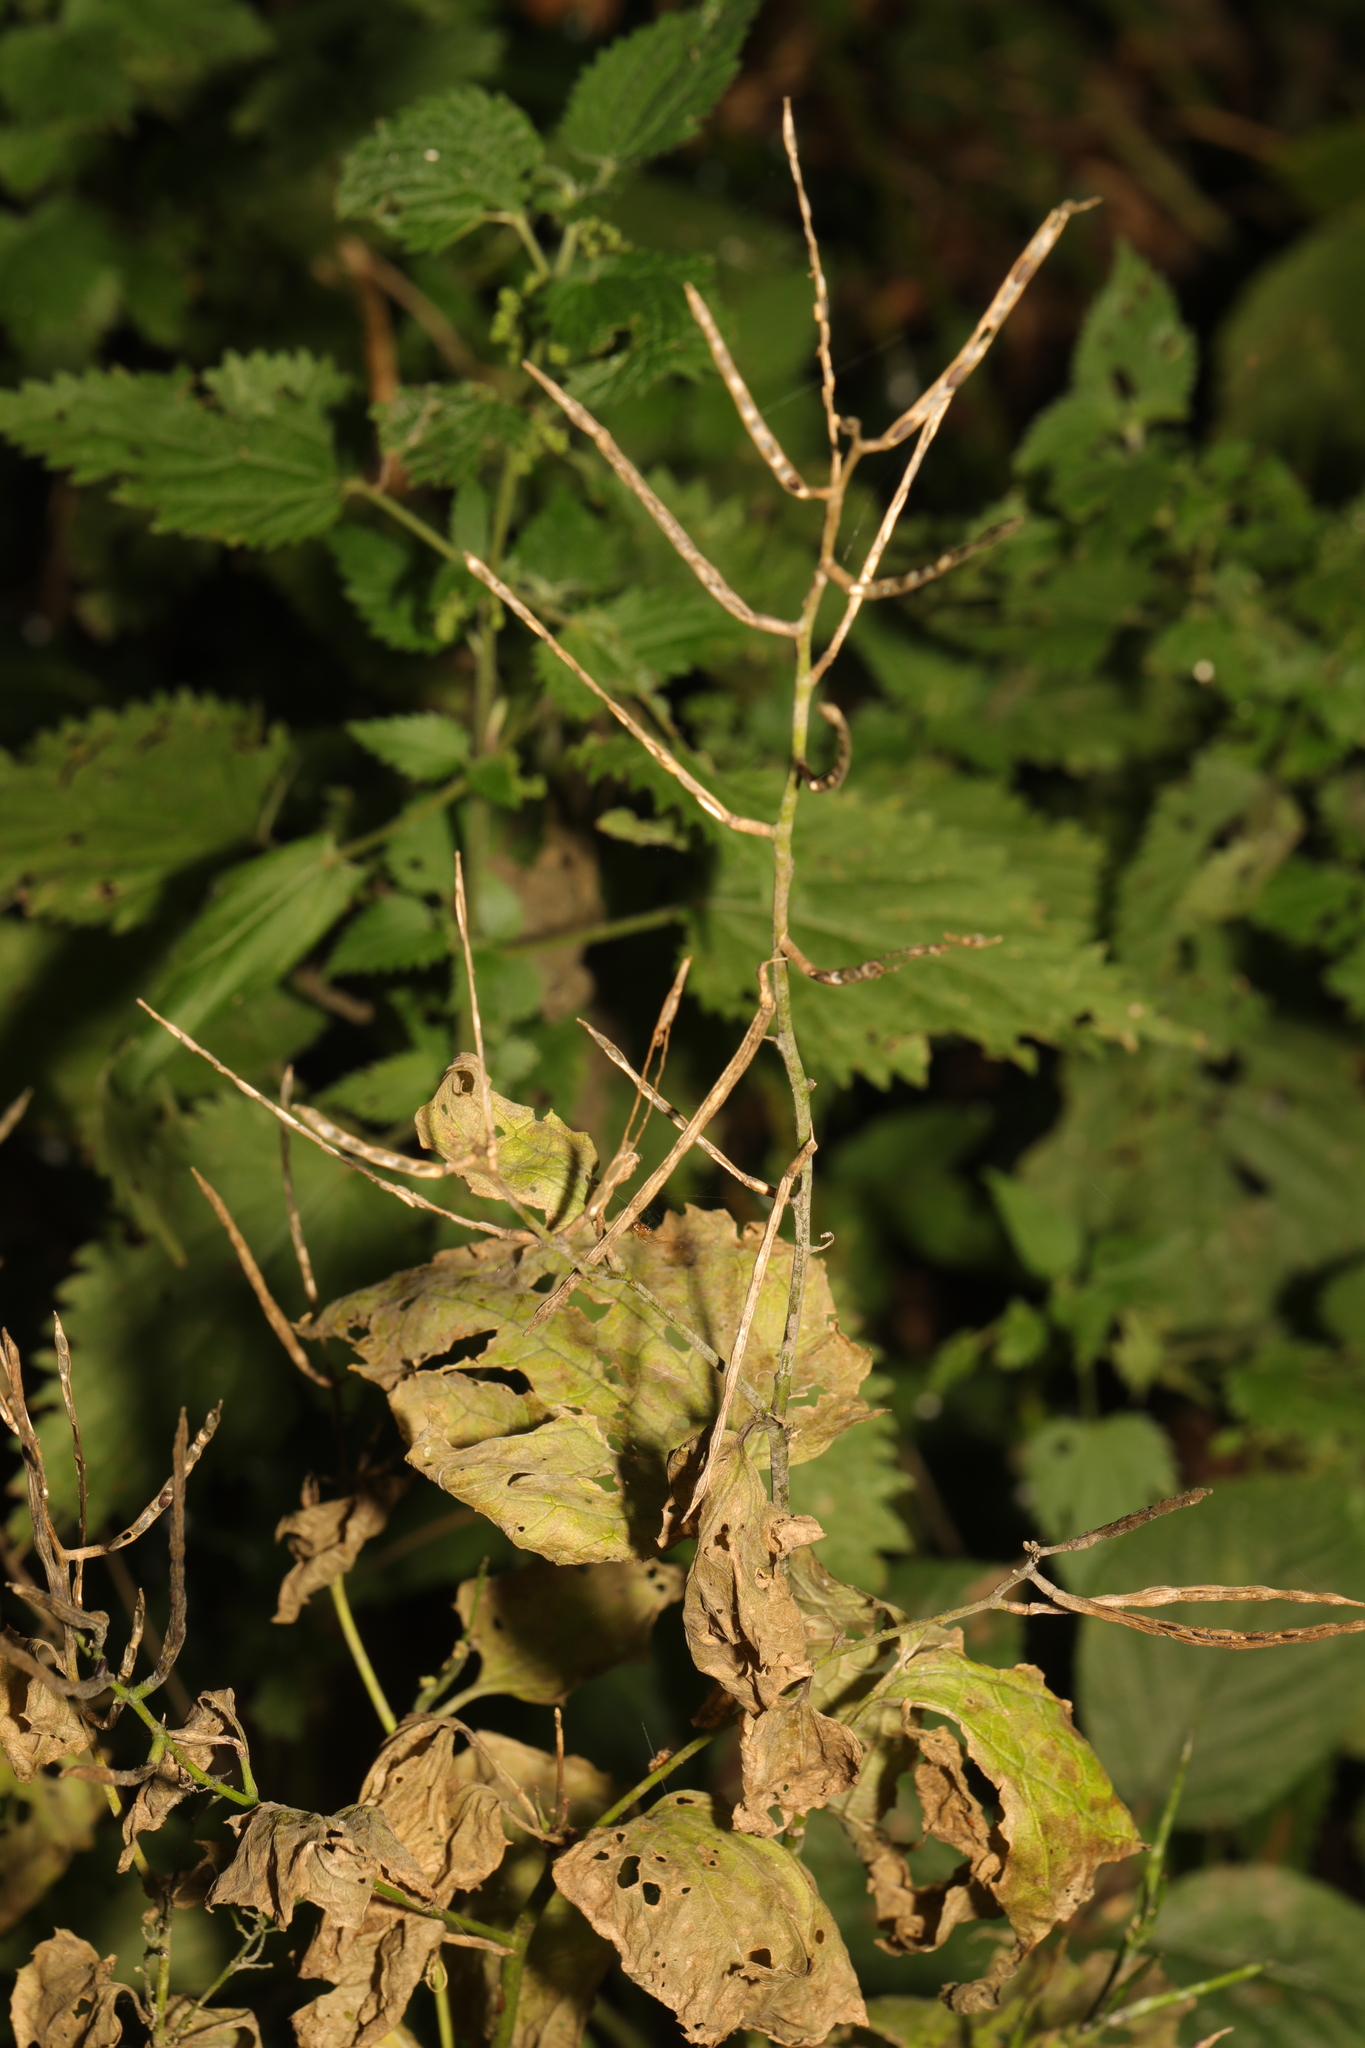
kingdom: Plantae
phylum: Tracheophyta
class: Magnoliopsida
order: Brassicales
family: Brassicaceae
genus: Alliaria
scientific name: Alliaria petiolata
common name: Garlic mustard
